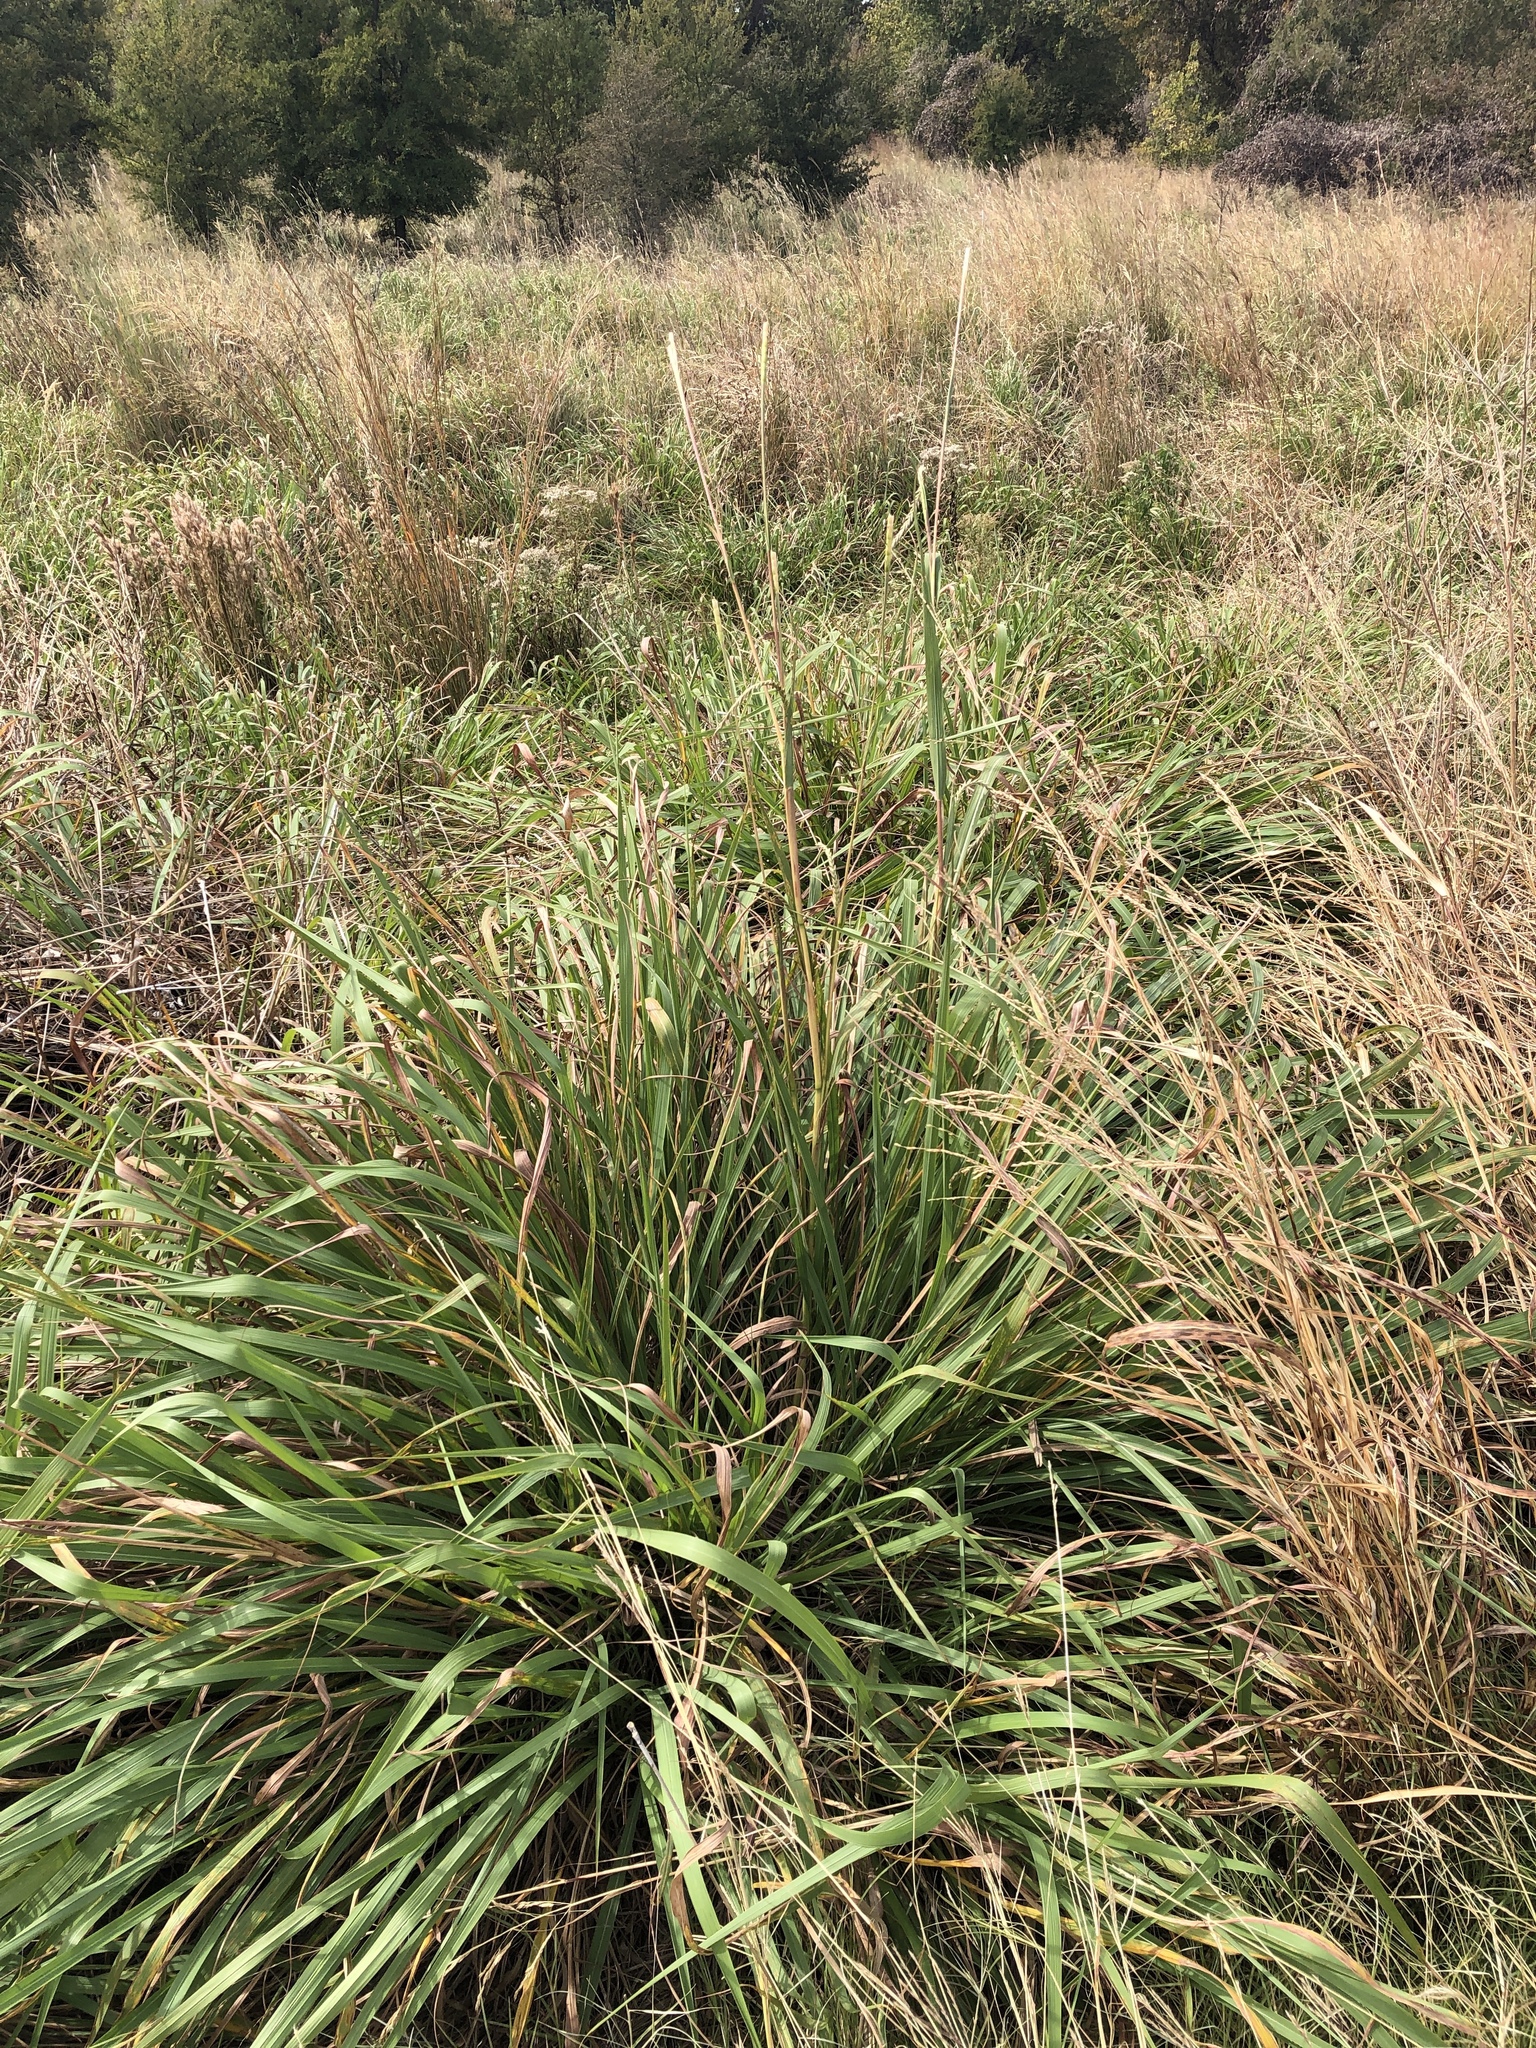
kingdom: Plantae
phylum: Tracheophyta
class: Liliopsida
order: Poales
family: Poaceae
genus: Tripsacum
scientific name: Tripsacum dactyloides
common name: Buffalo-grass
